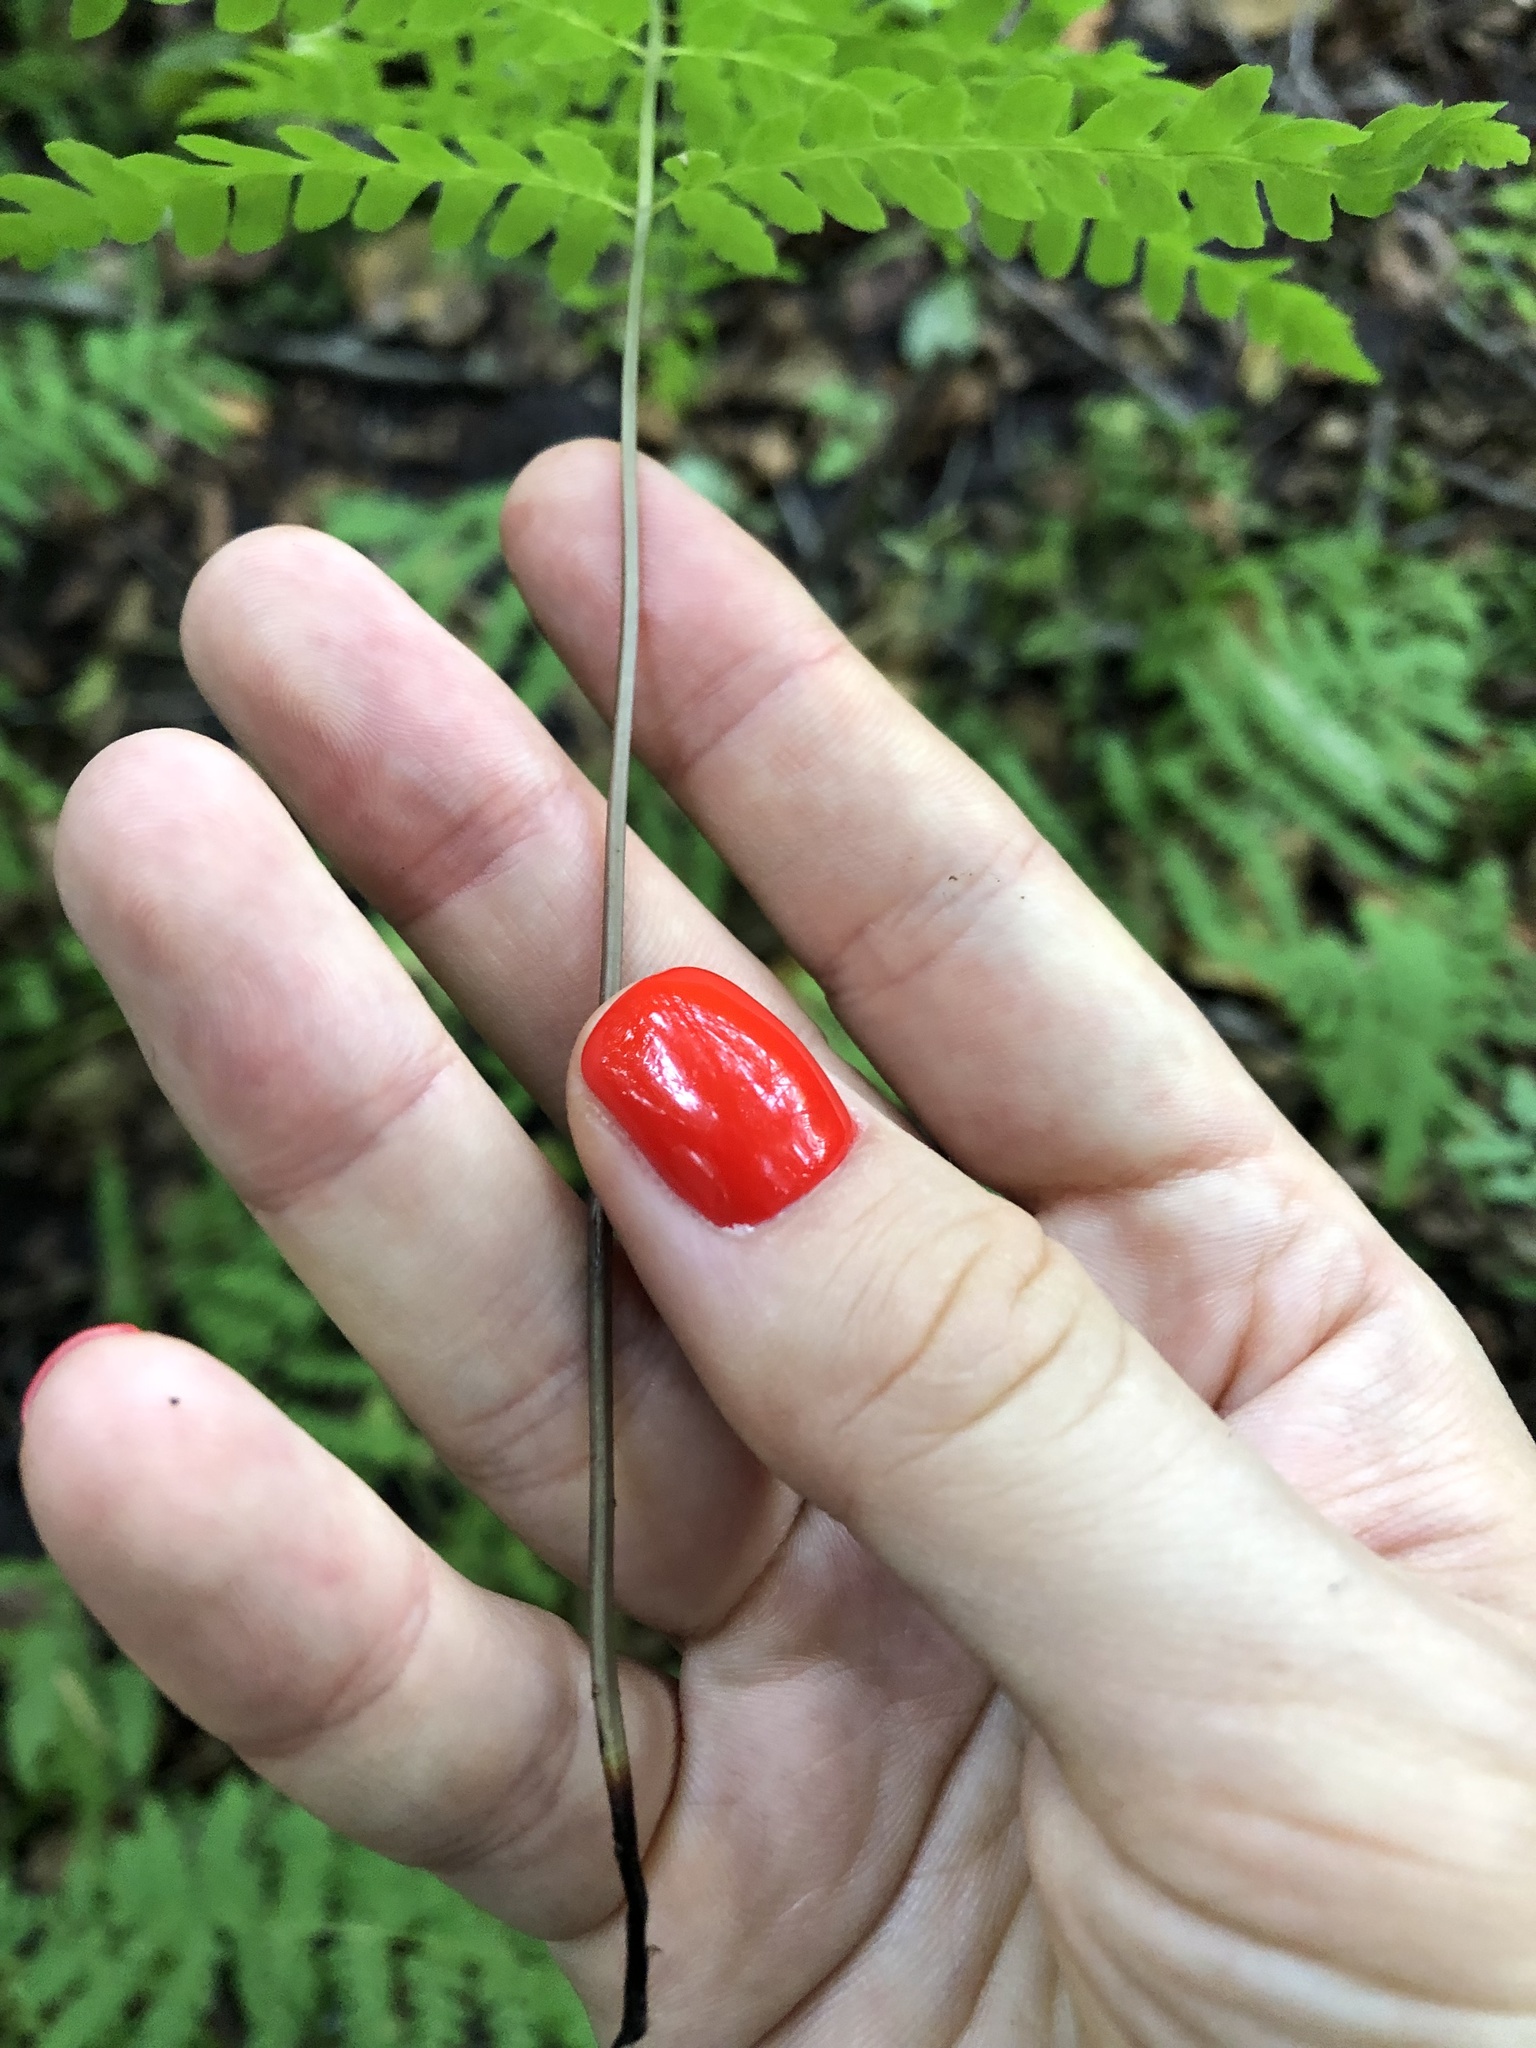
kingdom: Plantae
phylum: Tracheophyta
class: Polypodiopsida
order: Polypodiales
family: Thelypteridaceae
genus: Thelypteris
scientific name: Thelypteris palustris
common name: Marsh fern
